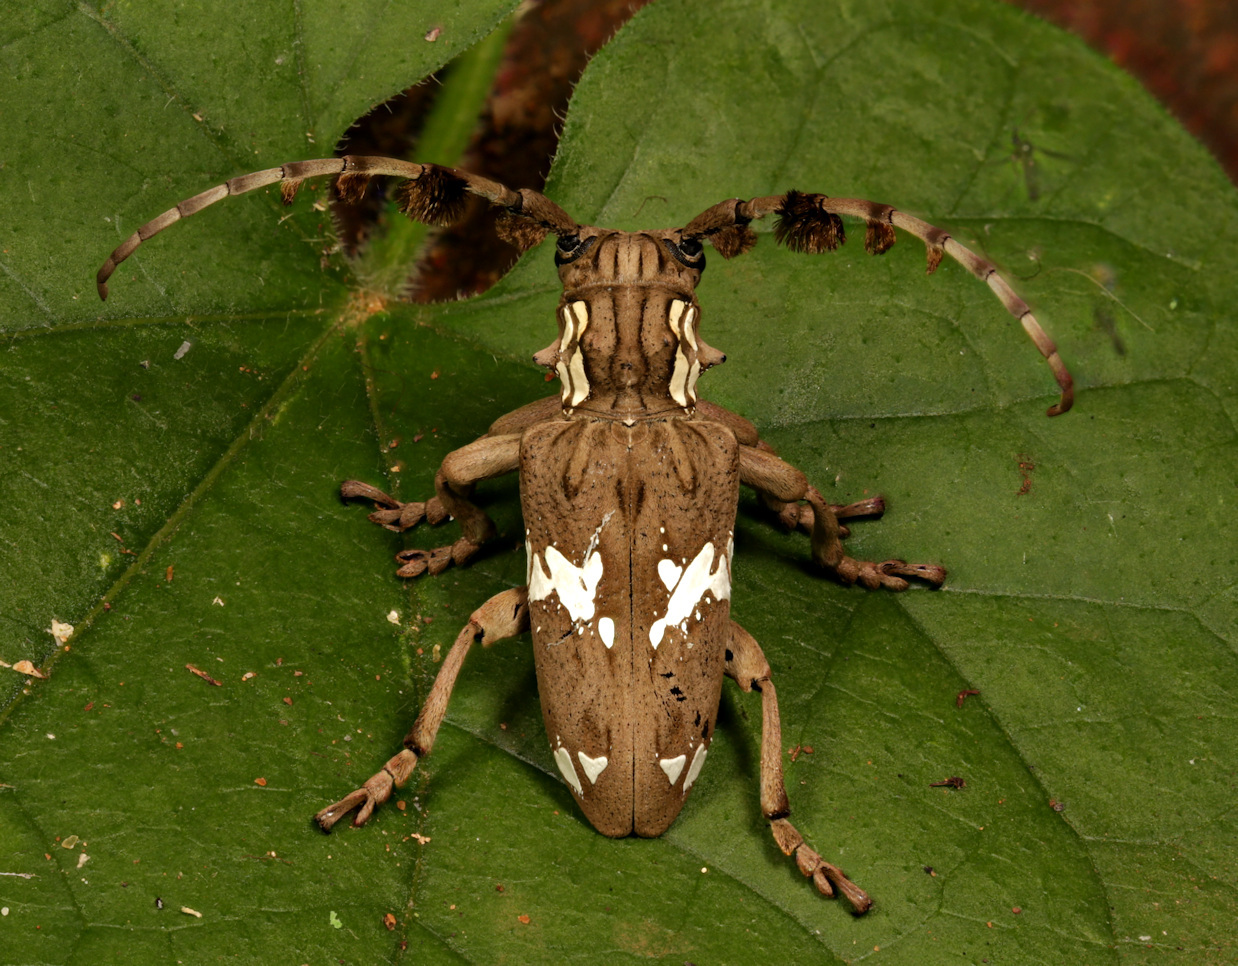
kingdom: Animalia
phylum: Arthropoda
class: Insecta
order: Coleoptera
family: Cerambycidae
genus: Mallonia
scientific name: Mallonia albosignata
